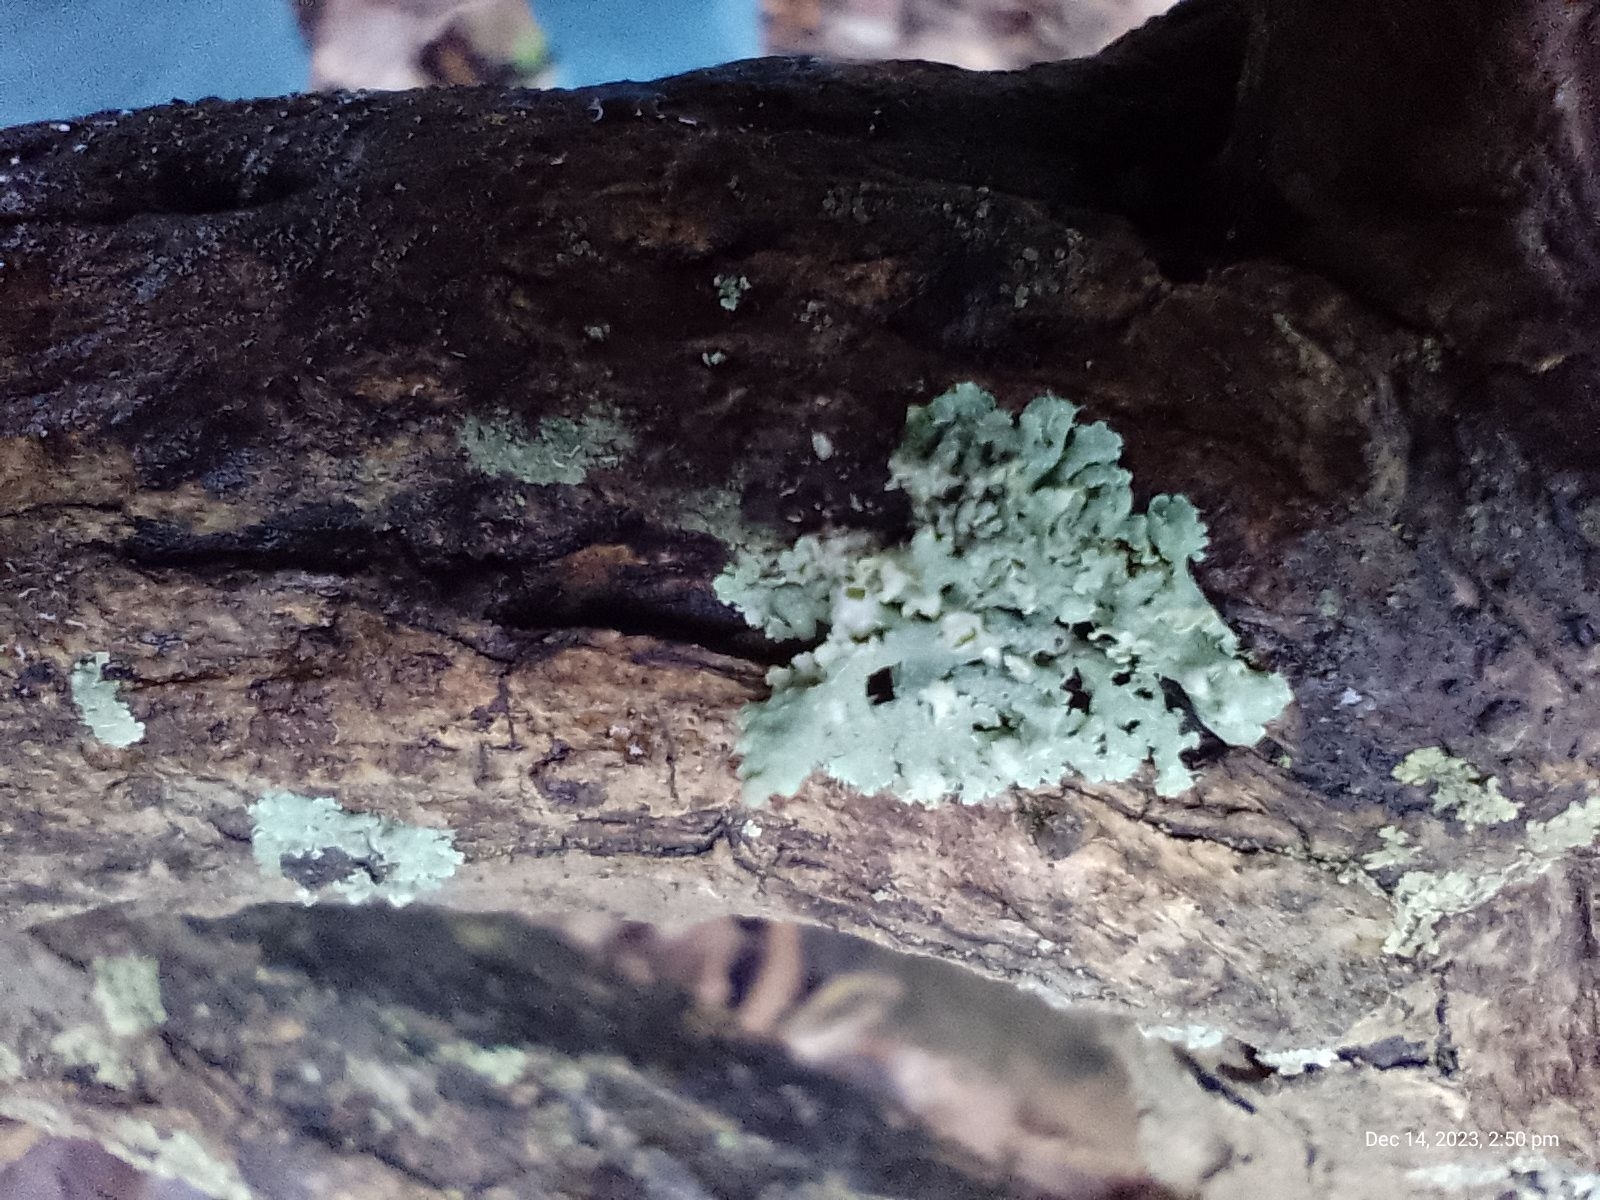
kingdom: Fungi
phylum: Ascomycota
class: Lecanoromycetes
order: Caliciales
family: Physciaceae
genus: Physcia
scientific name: Physcia adscendens
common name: Hooded rosette lichen
